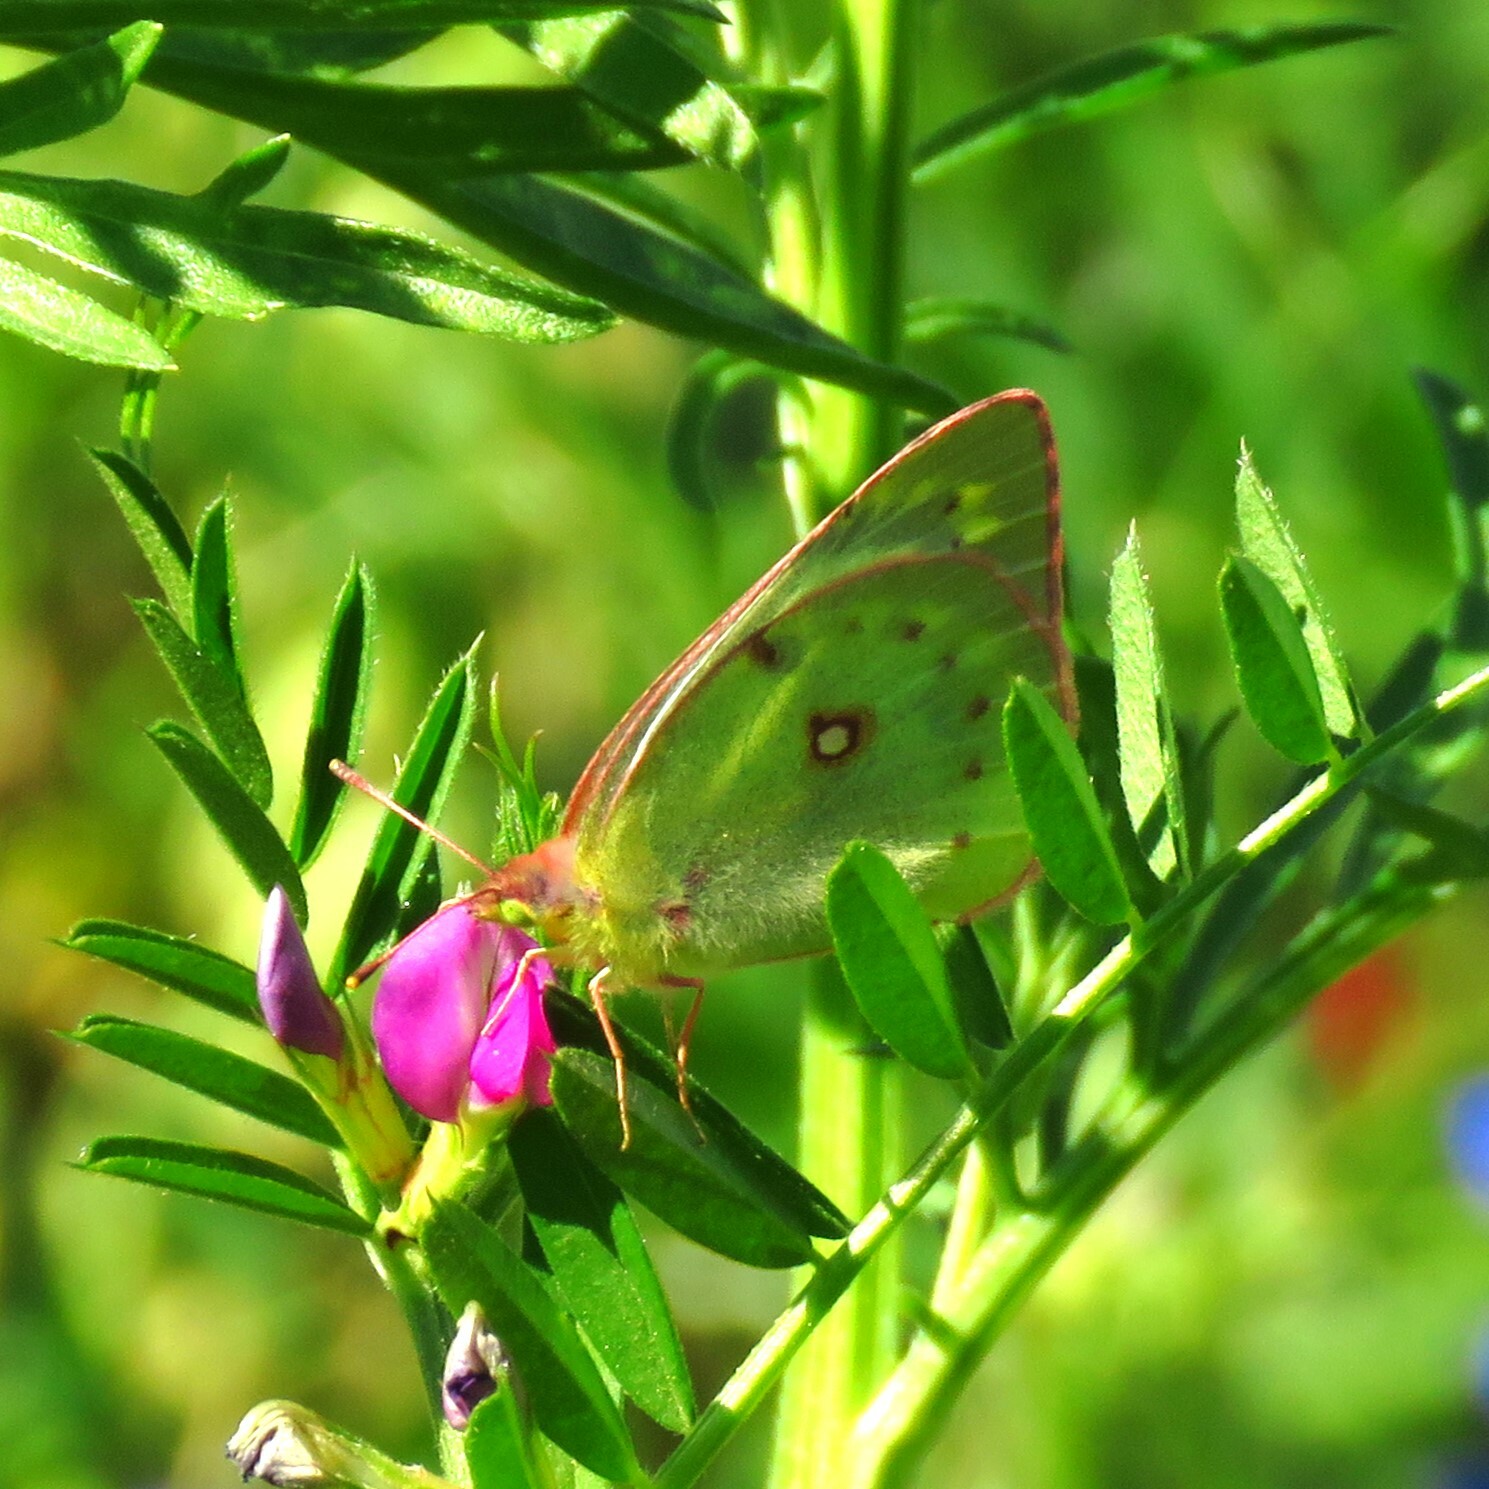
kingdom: Animalia
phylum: Arthropoda
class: Insecta
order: Lepidoptera
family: Pieridae
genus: Colias
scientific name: Colias eurytheme
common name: Alfalfa butterfly
